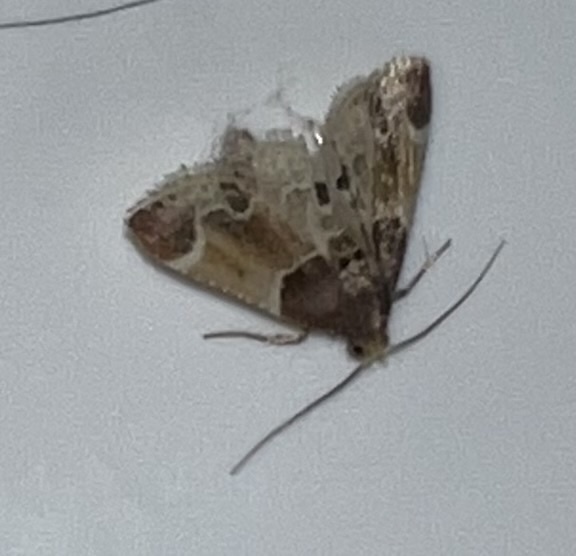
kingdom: Animalia
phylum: Arthropoda
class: Insecta
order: Lepidoptera
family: Pyralidae
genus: Pyralis
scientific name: Pyralis farinalis
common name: Meal moth
